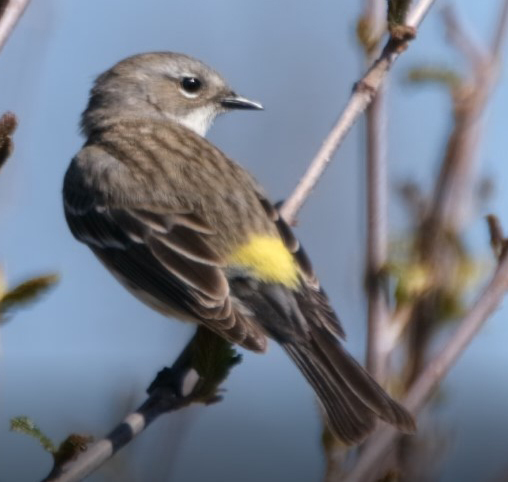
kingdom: Animalia
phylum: Chordata
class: Aves
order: Passeriformes
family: Parulidae
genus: Setophaga
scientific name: Setophaga coronata
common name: Myrtle warbler
